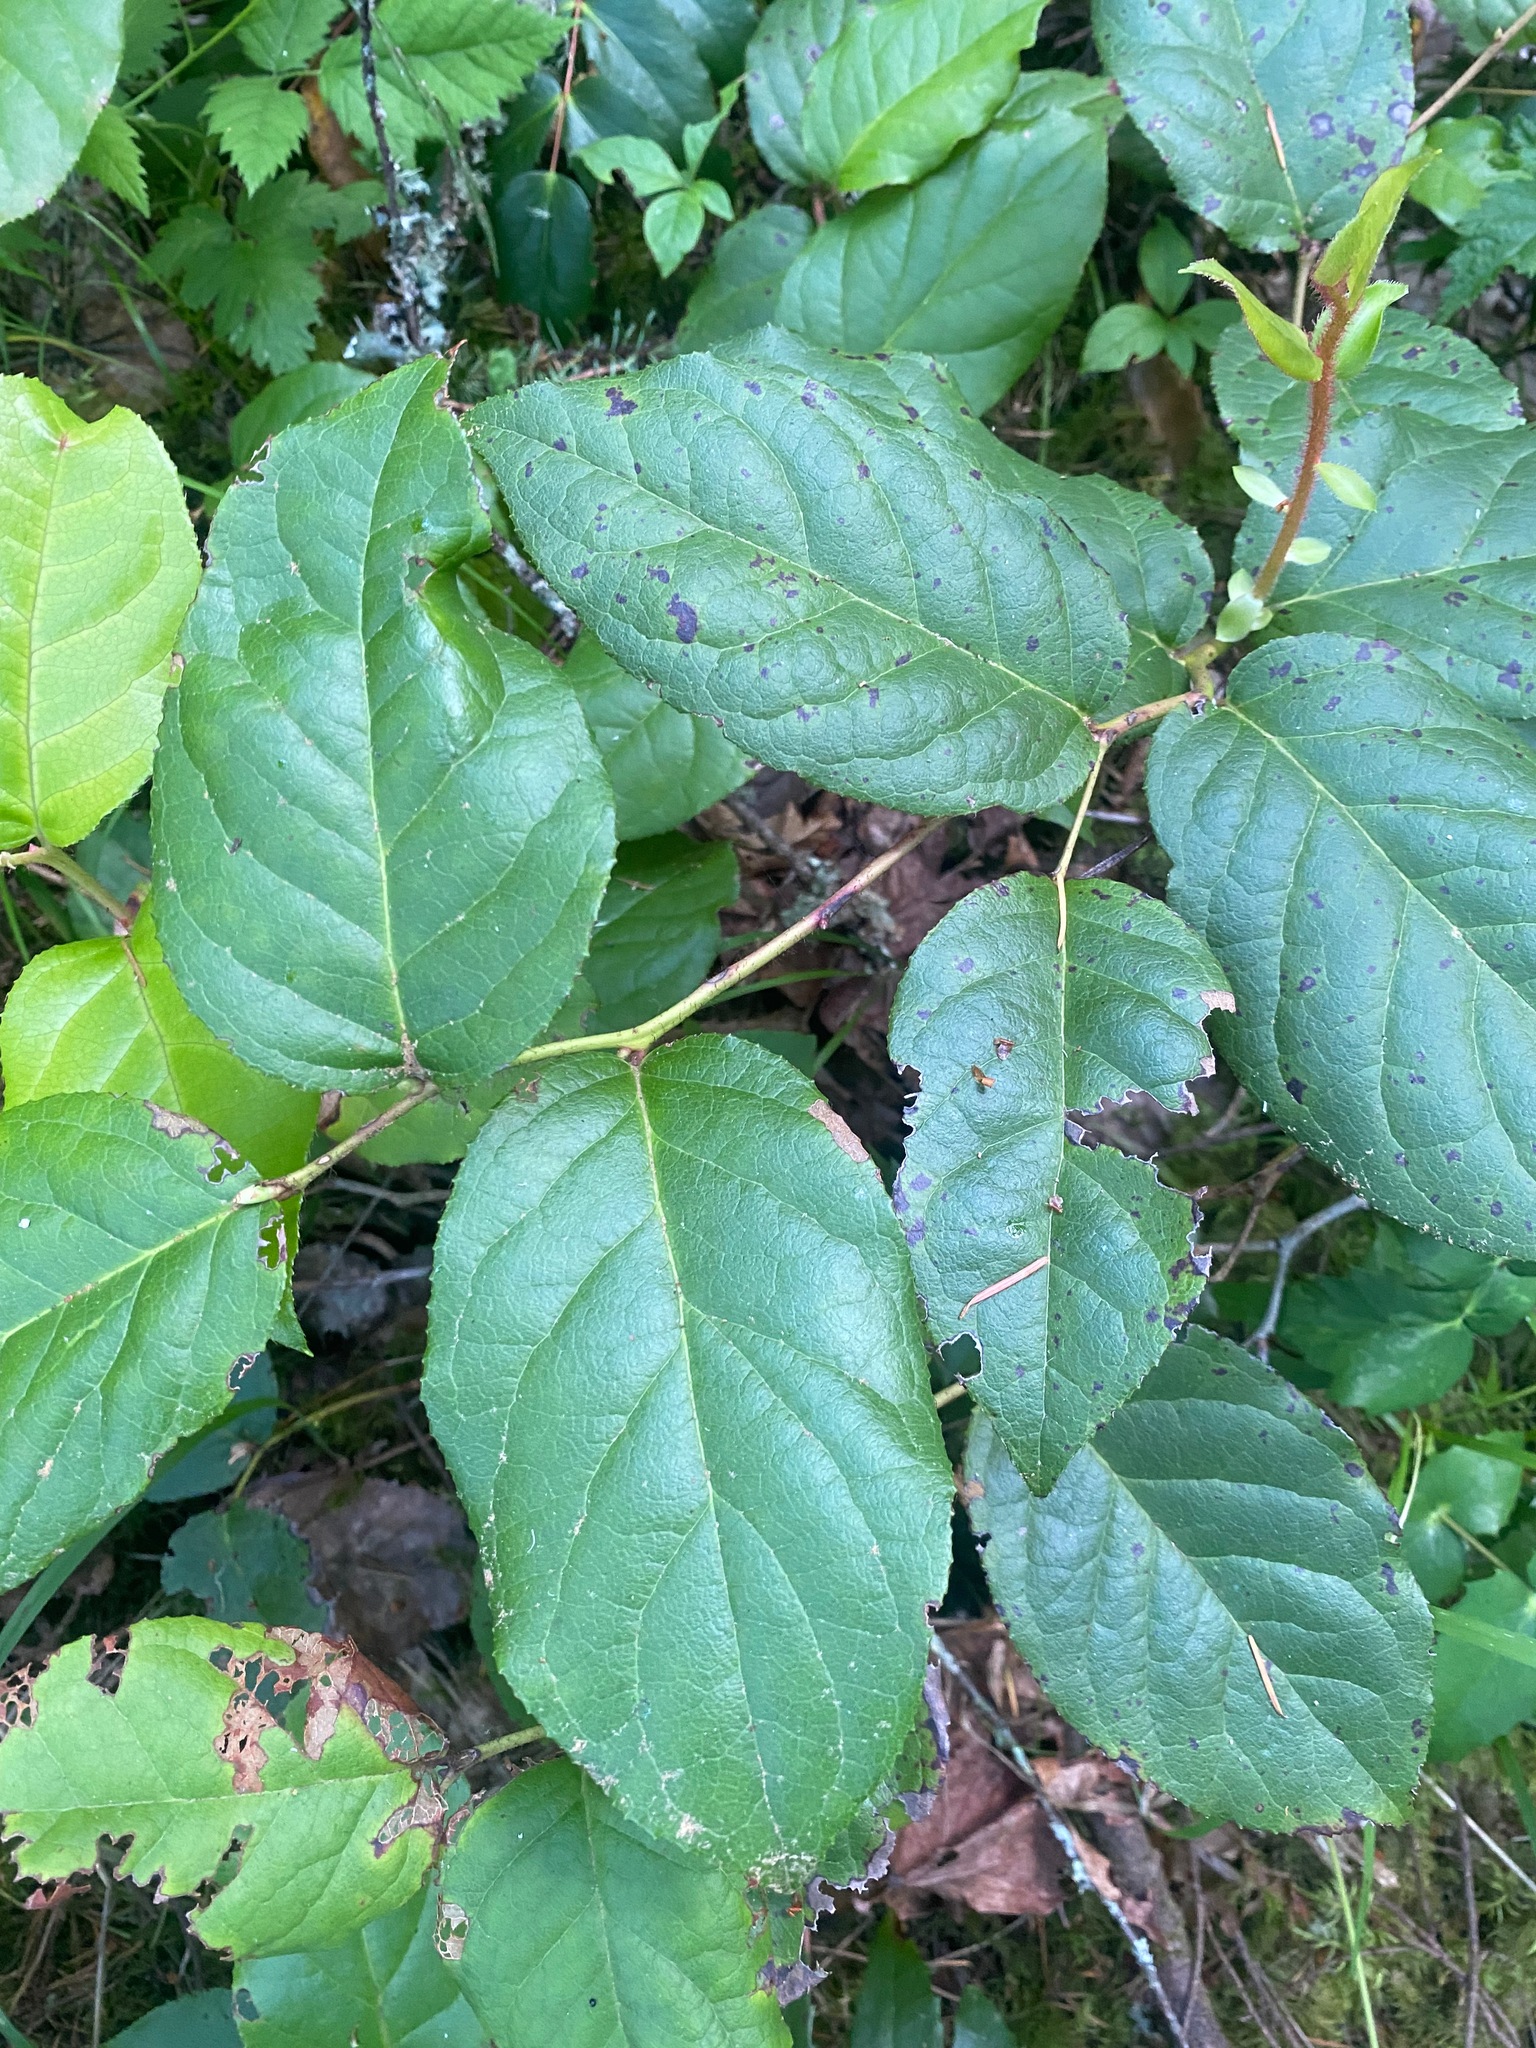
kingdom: Plantae
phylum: Tracheophyta
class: Magnoliopsida
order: Ericales
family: Ericaceae
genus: Gaultheria
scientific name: Gaultheria shallon
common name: Shallon
